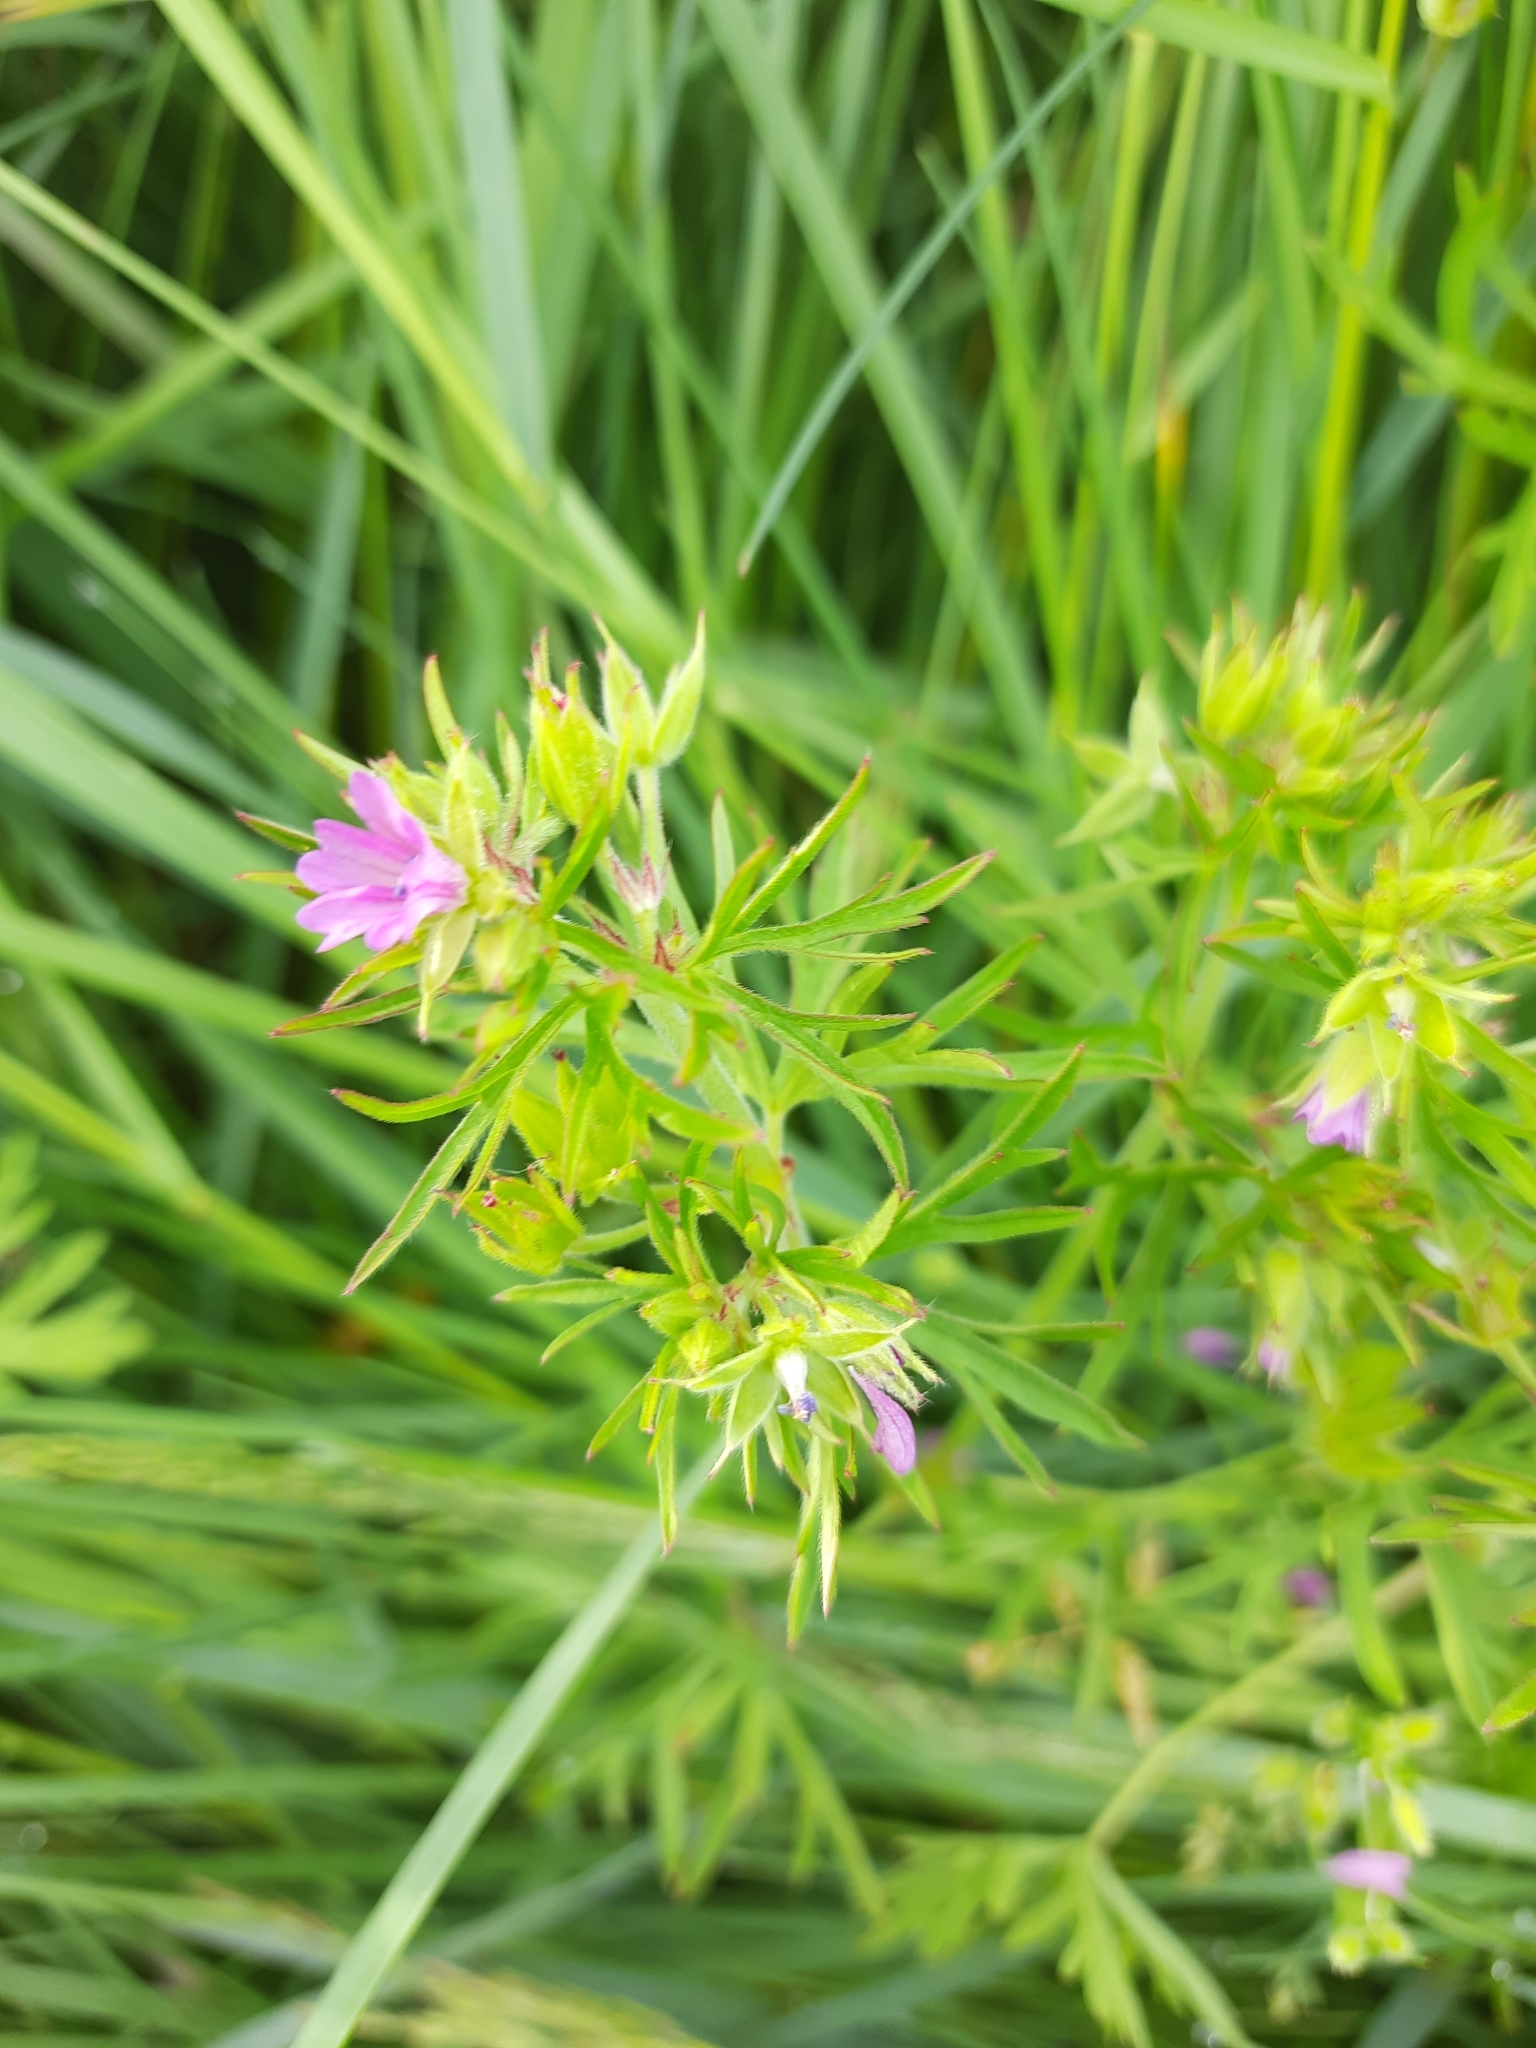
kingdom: Plantae
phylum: Tracheophyta
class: Magnoliopsida
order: Geraniales
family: Geraniaceae
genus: Geranium
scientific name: Geranium dissectum
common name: Cut-leaved crane's-bill
